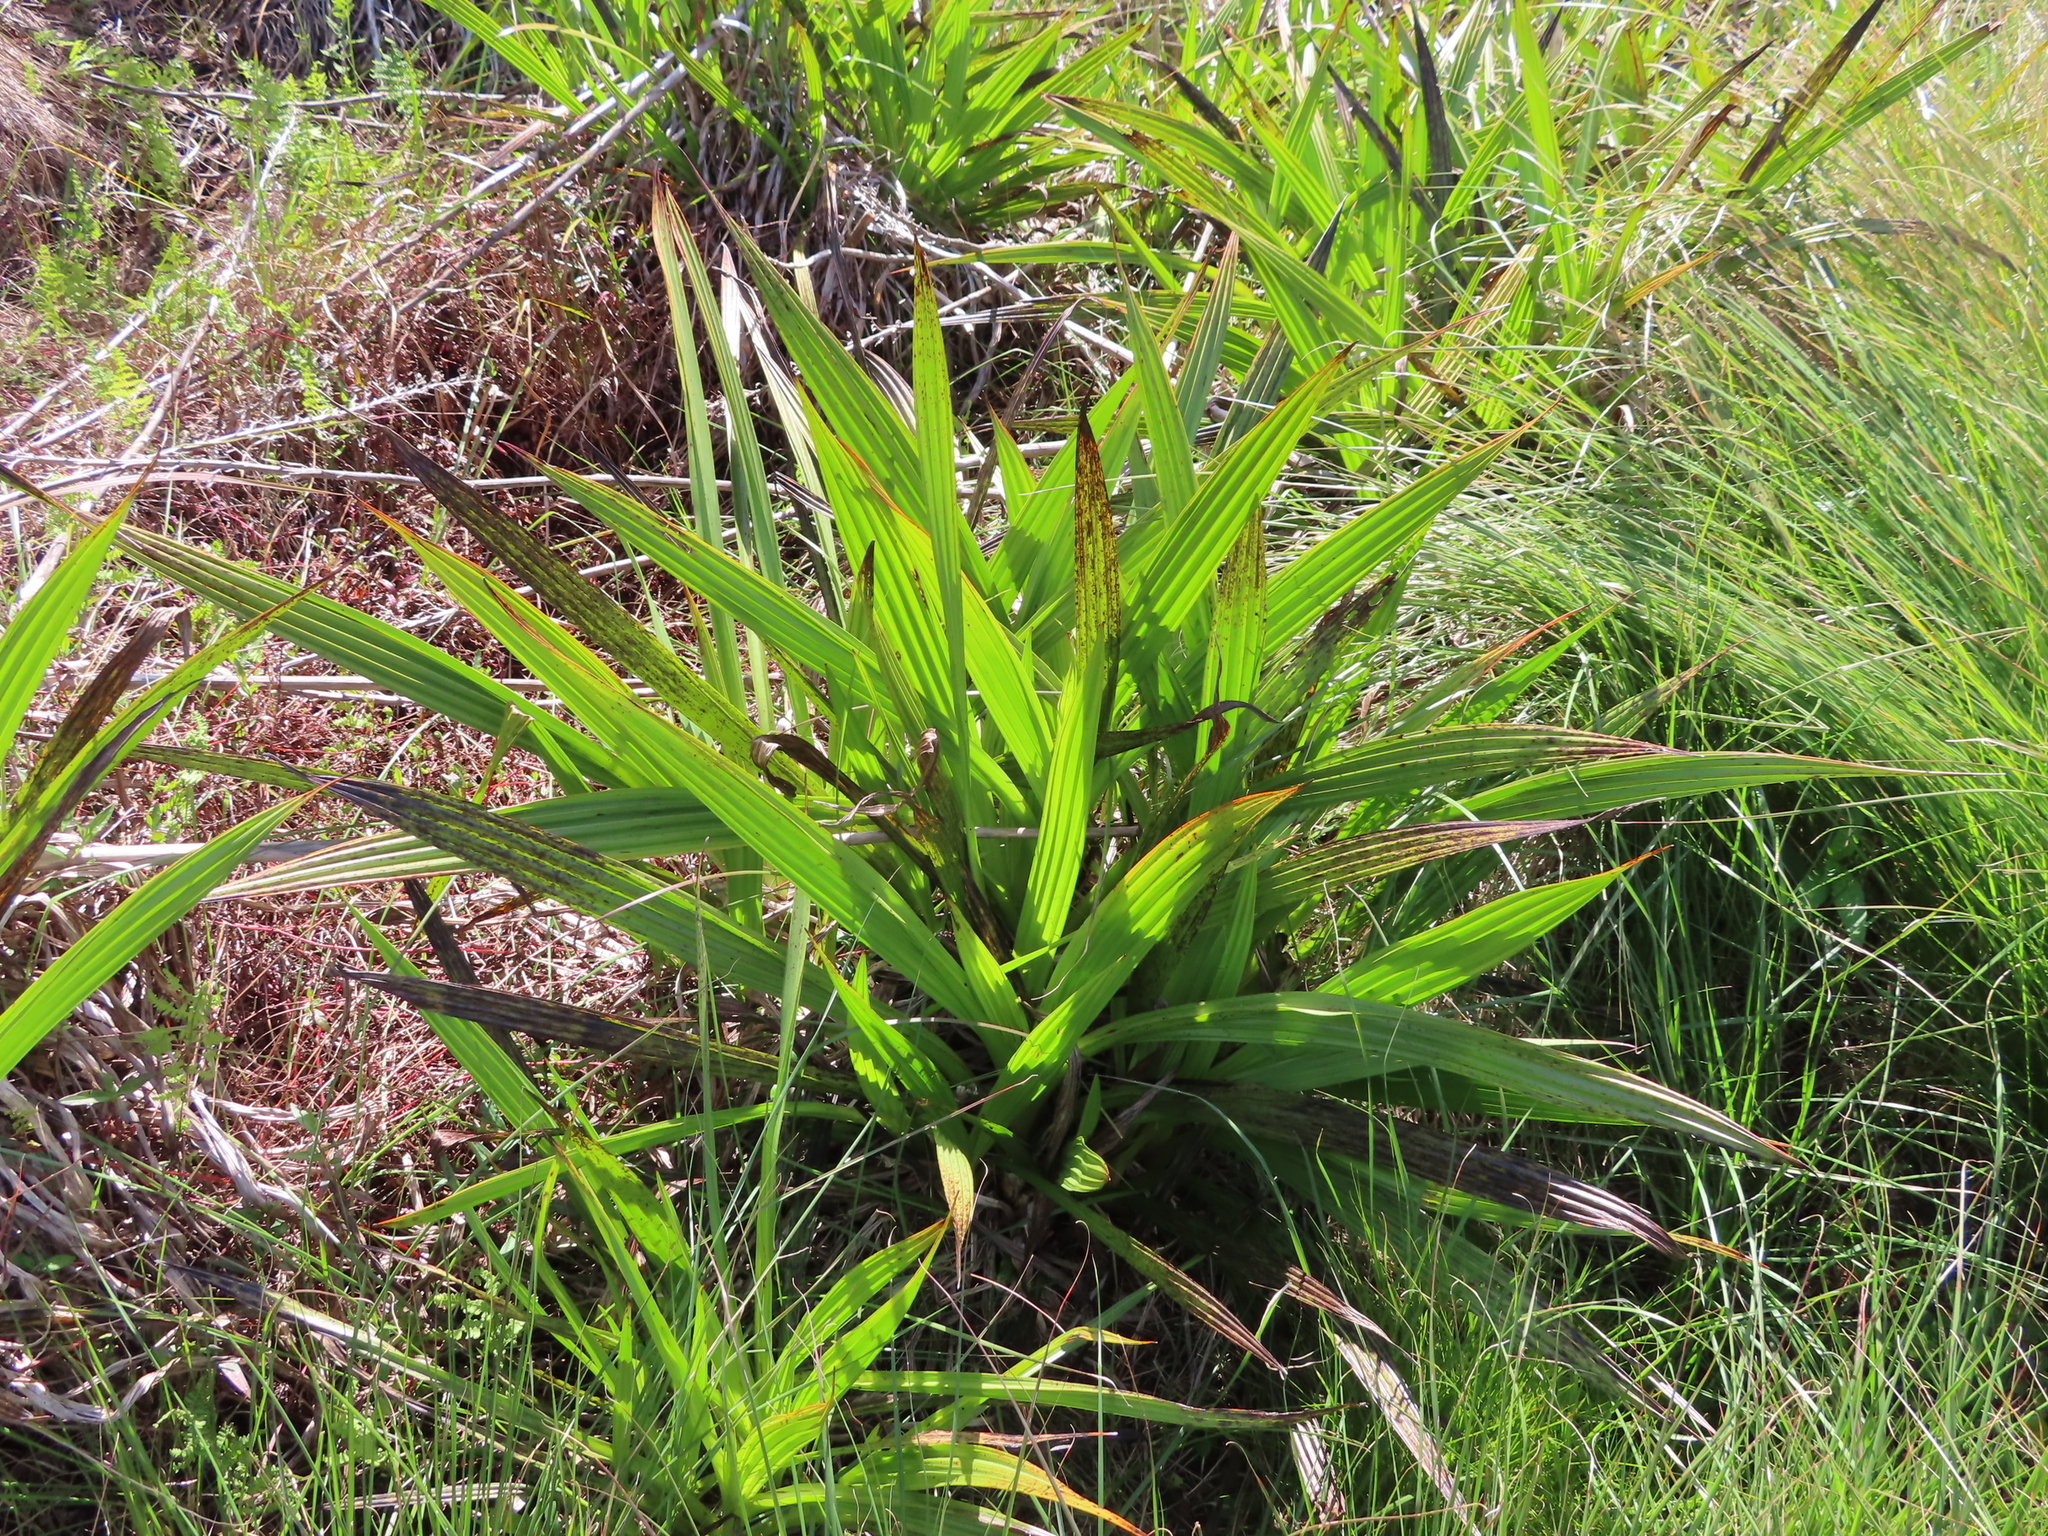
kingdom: Plantae
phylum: Tracheophyta
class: Liliopsida
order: Commelinales
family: Haemodoraceae
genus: Wachendorfia
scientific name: Wachendorfia thyrsiflora
